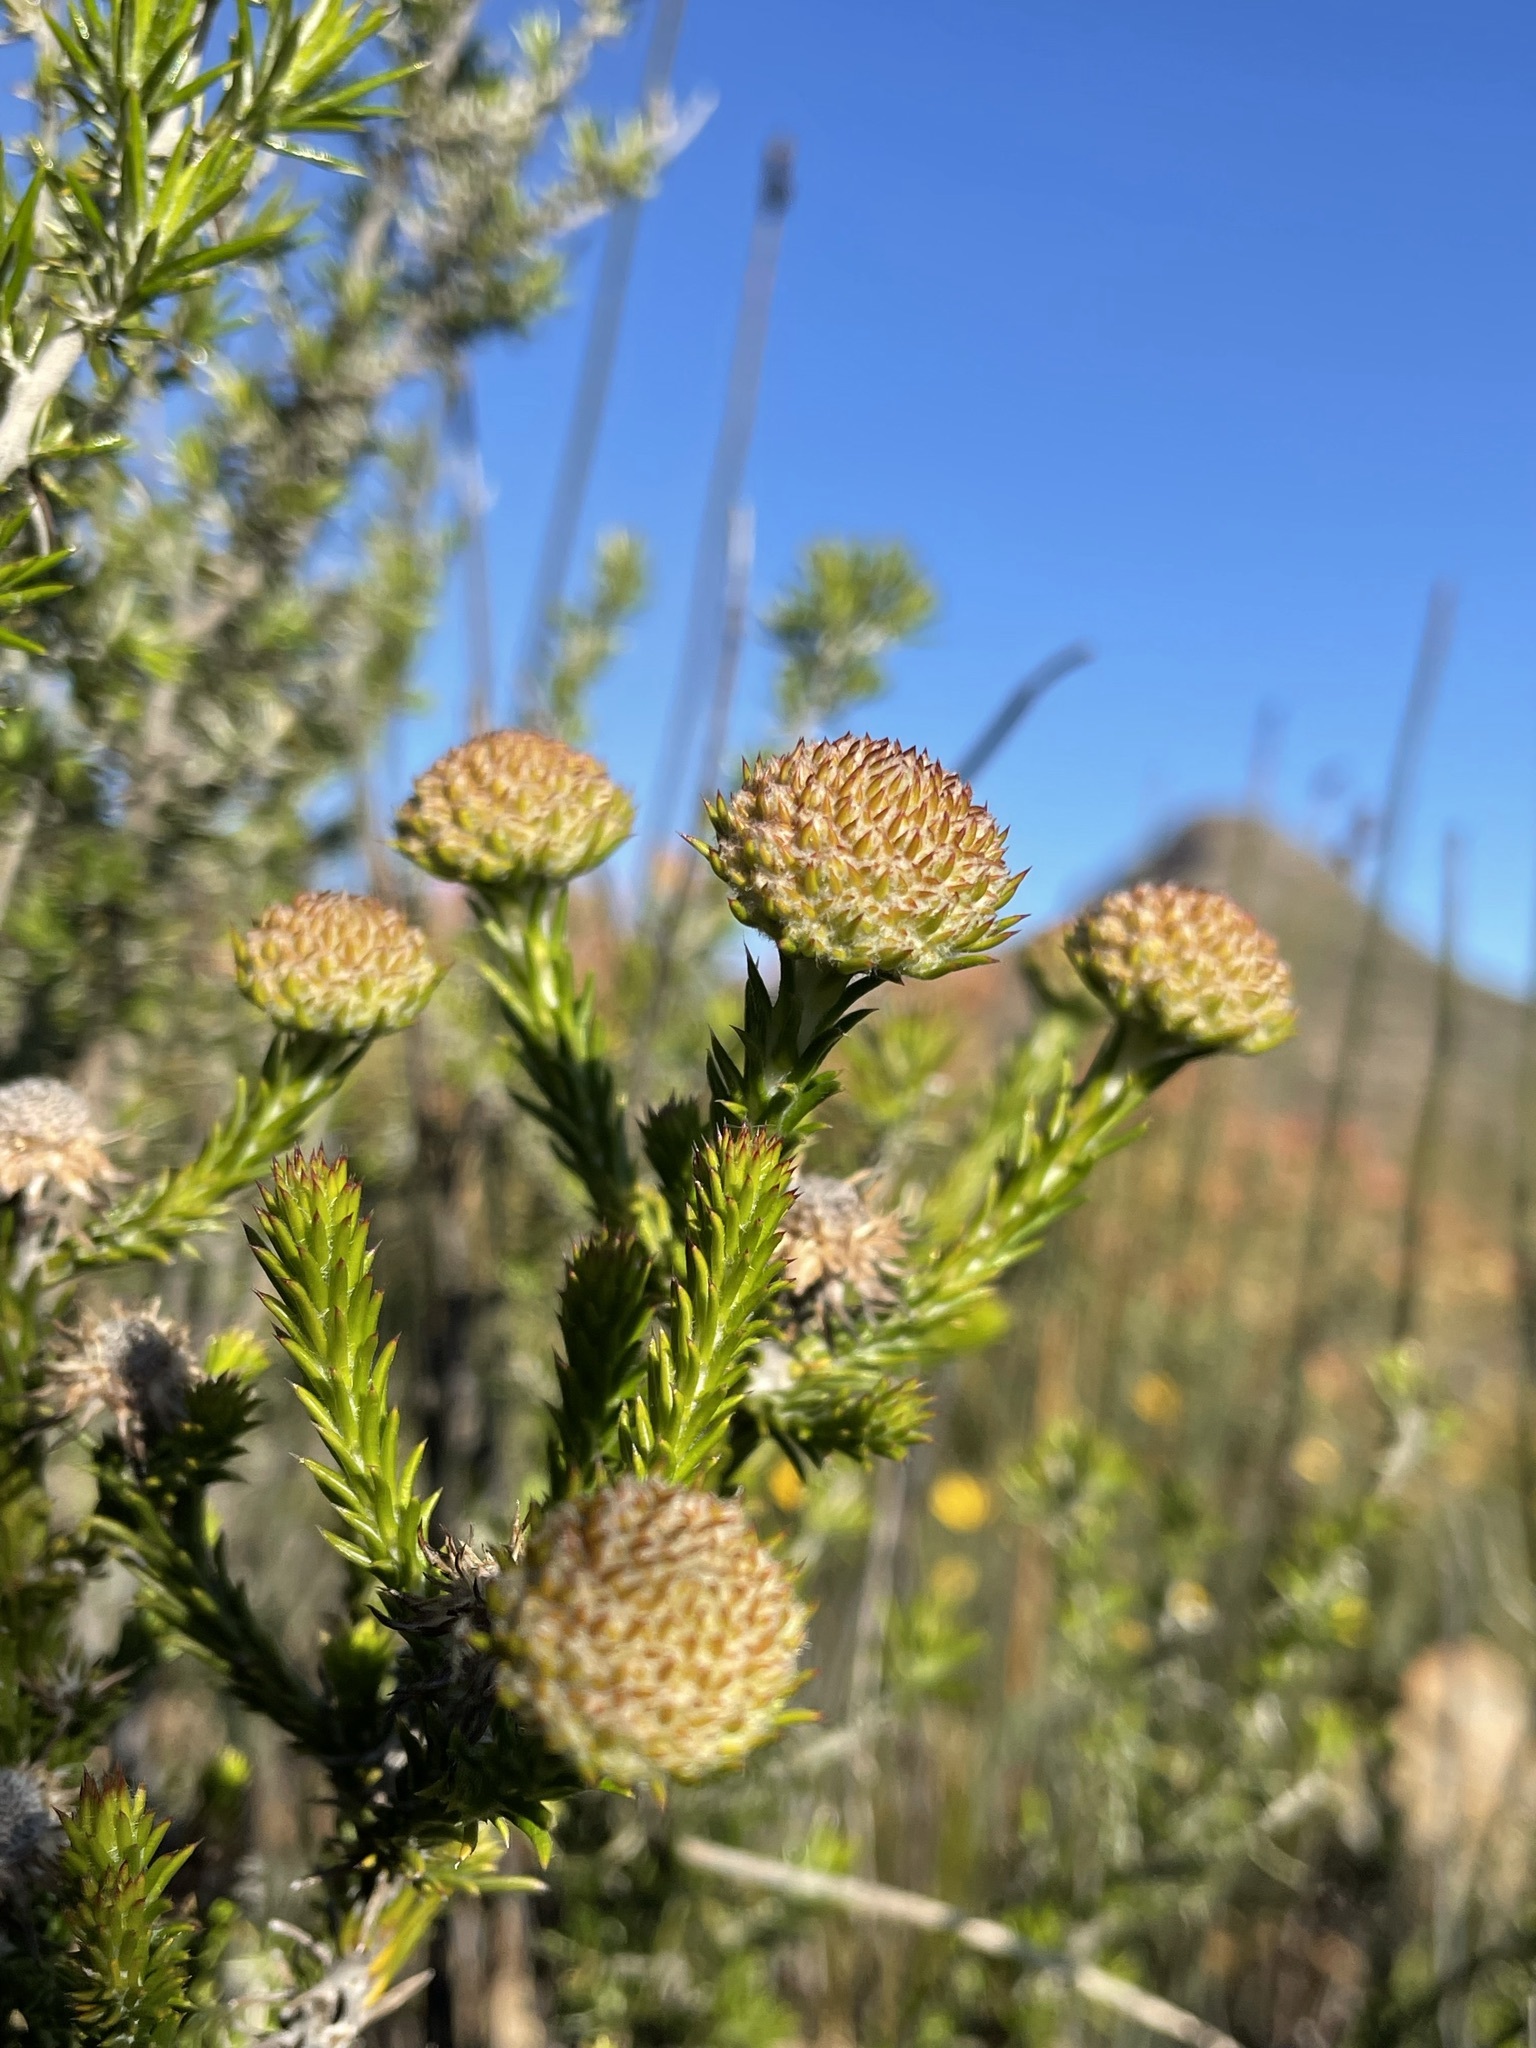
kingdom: Plantae
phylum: Tracheophyta
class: Magnoliopsida
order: Asterales
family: Asteraceae
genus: Stoebe
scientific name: Stoebe aethiopica
